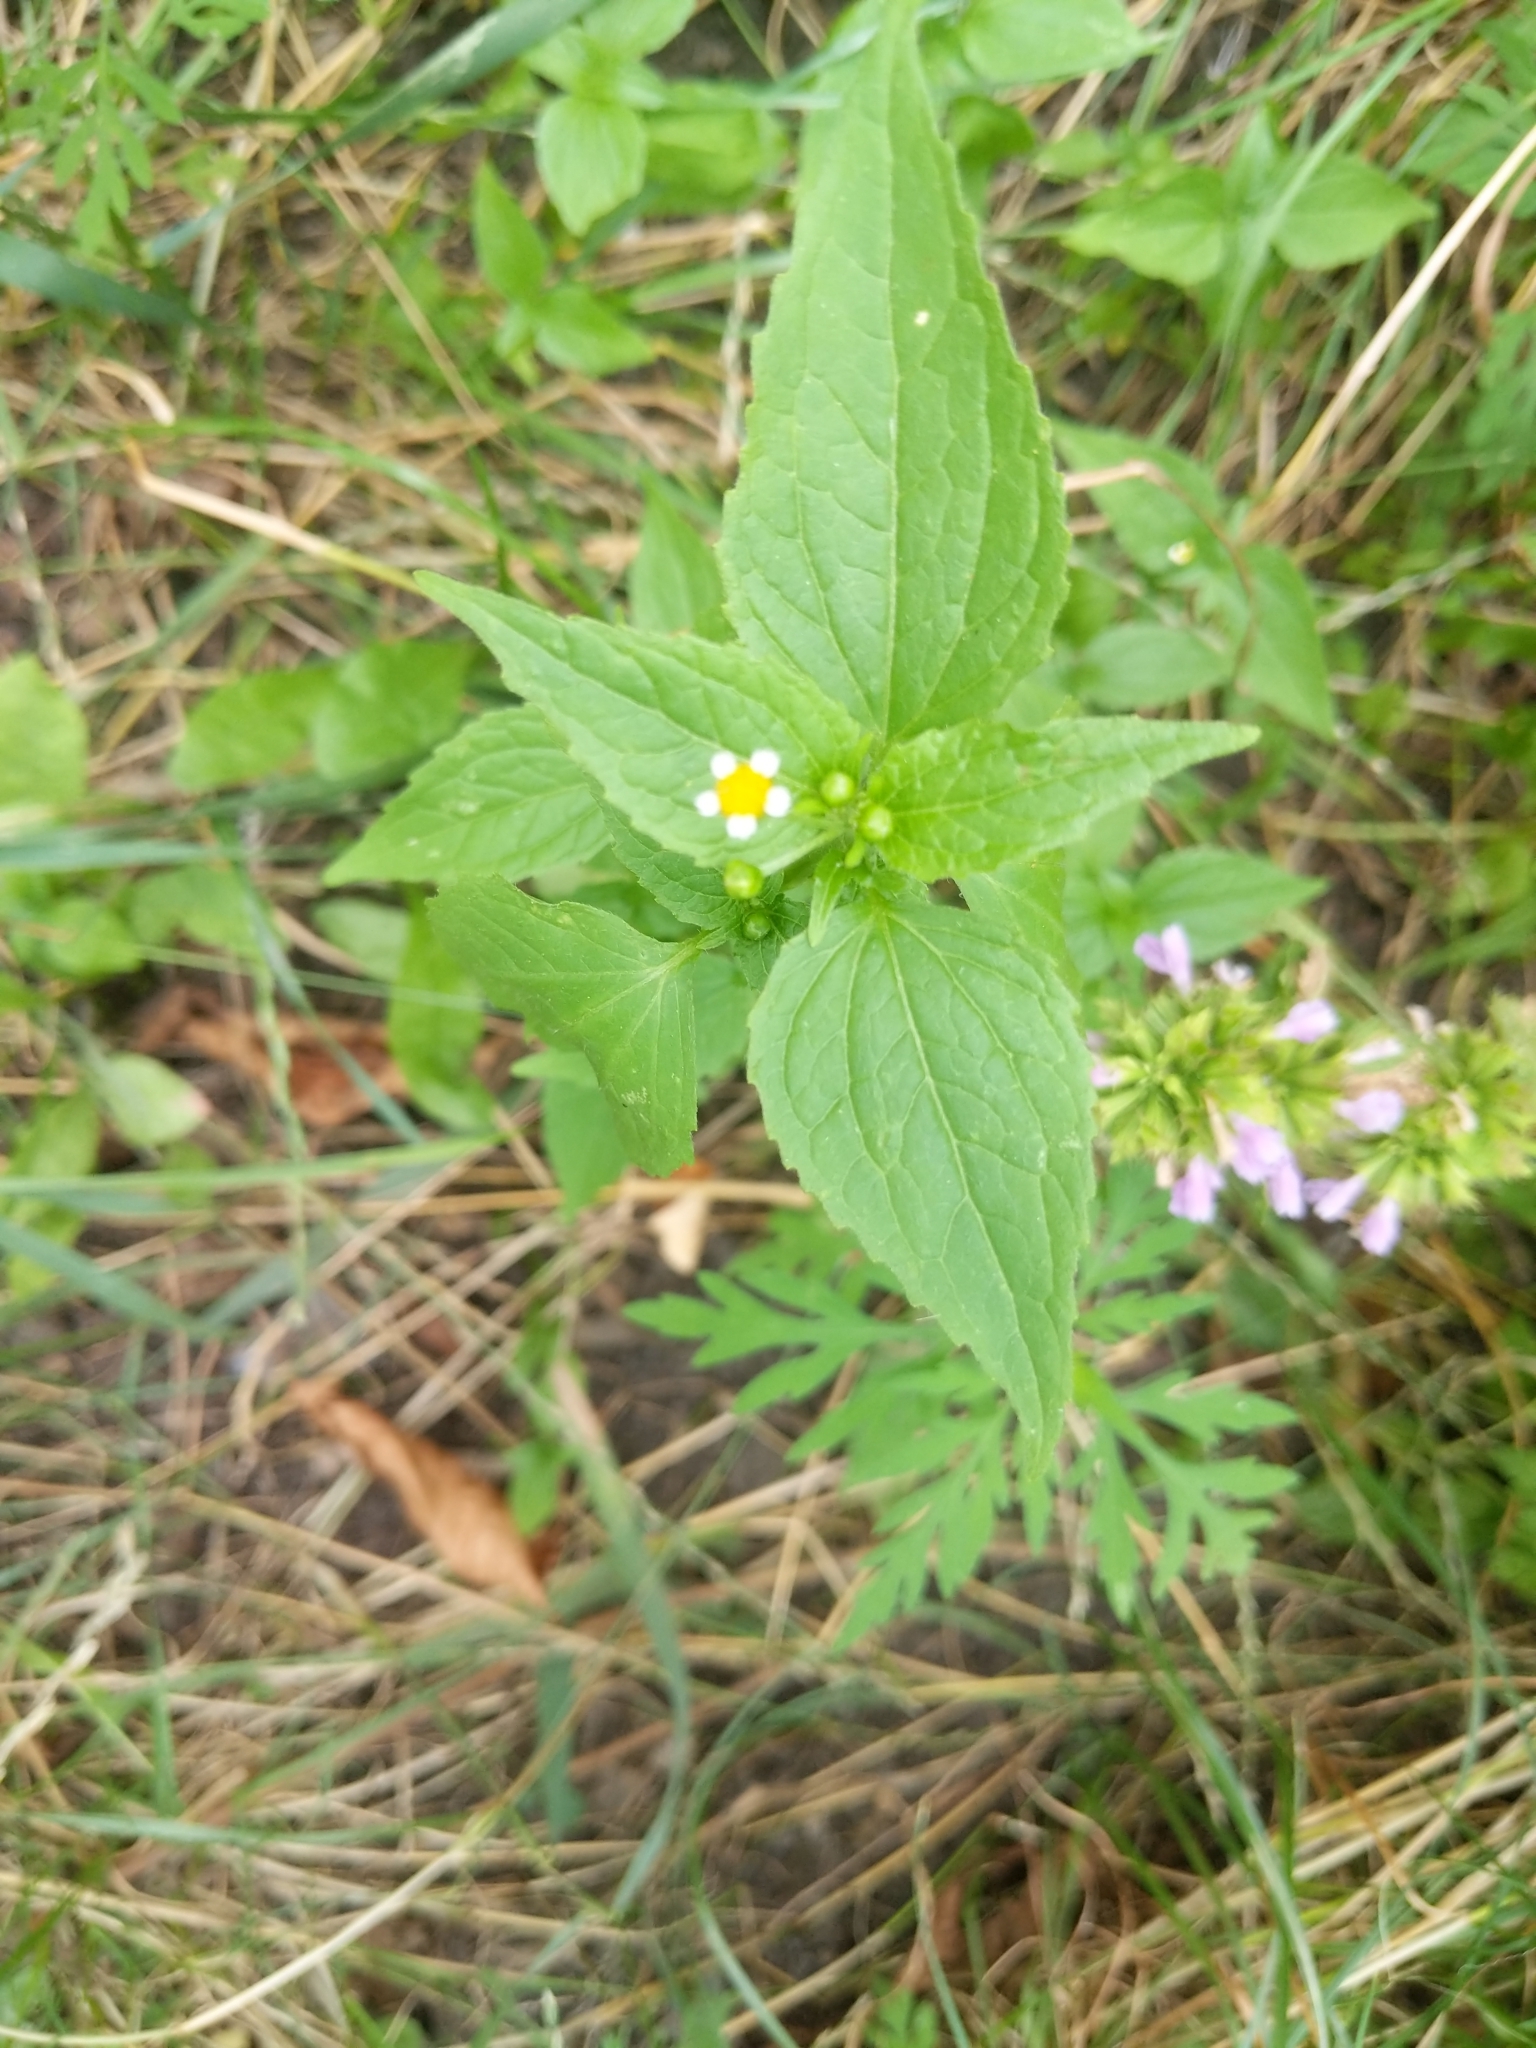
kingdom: Plantae
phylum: Tracheophyta
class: Magnoliopsida
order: Asterales
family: Asteraceae
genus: Galinsoga
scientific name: Galinsoga parviflora
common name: Gallant soldier
